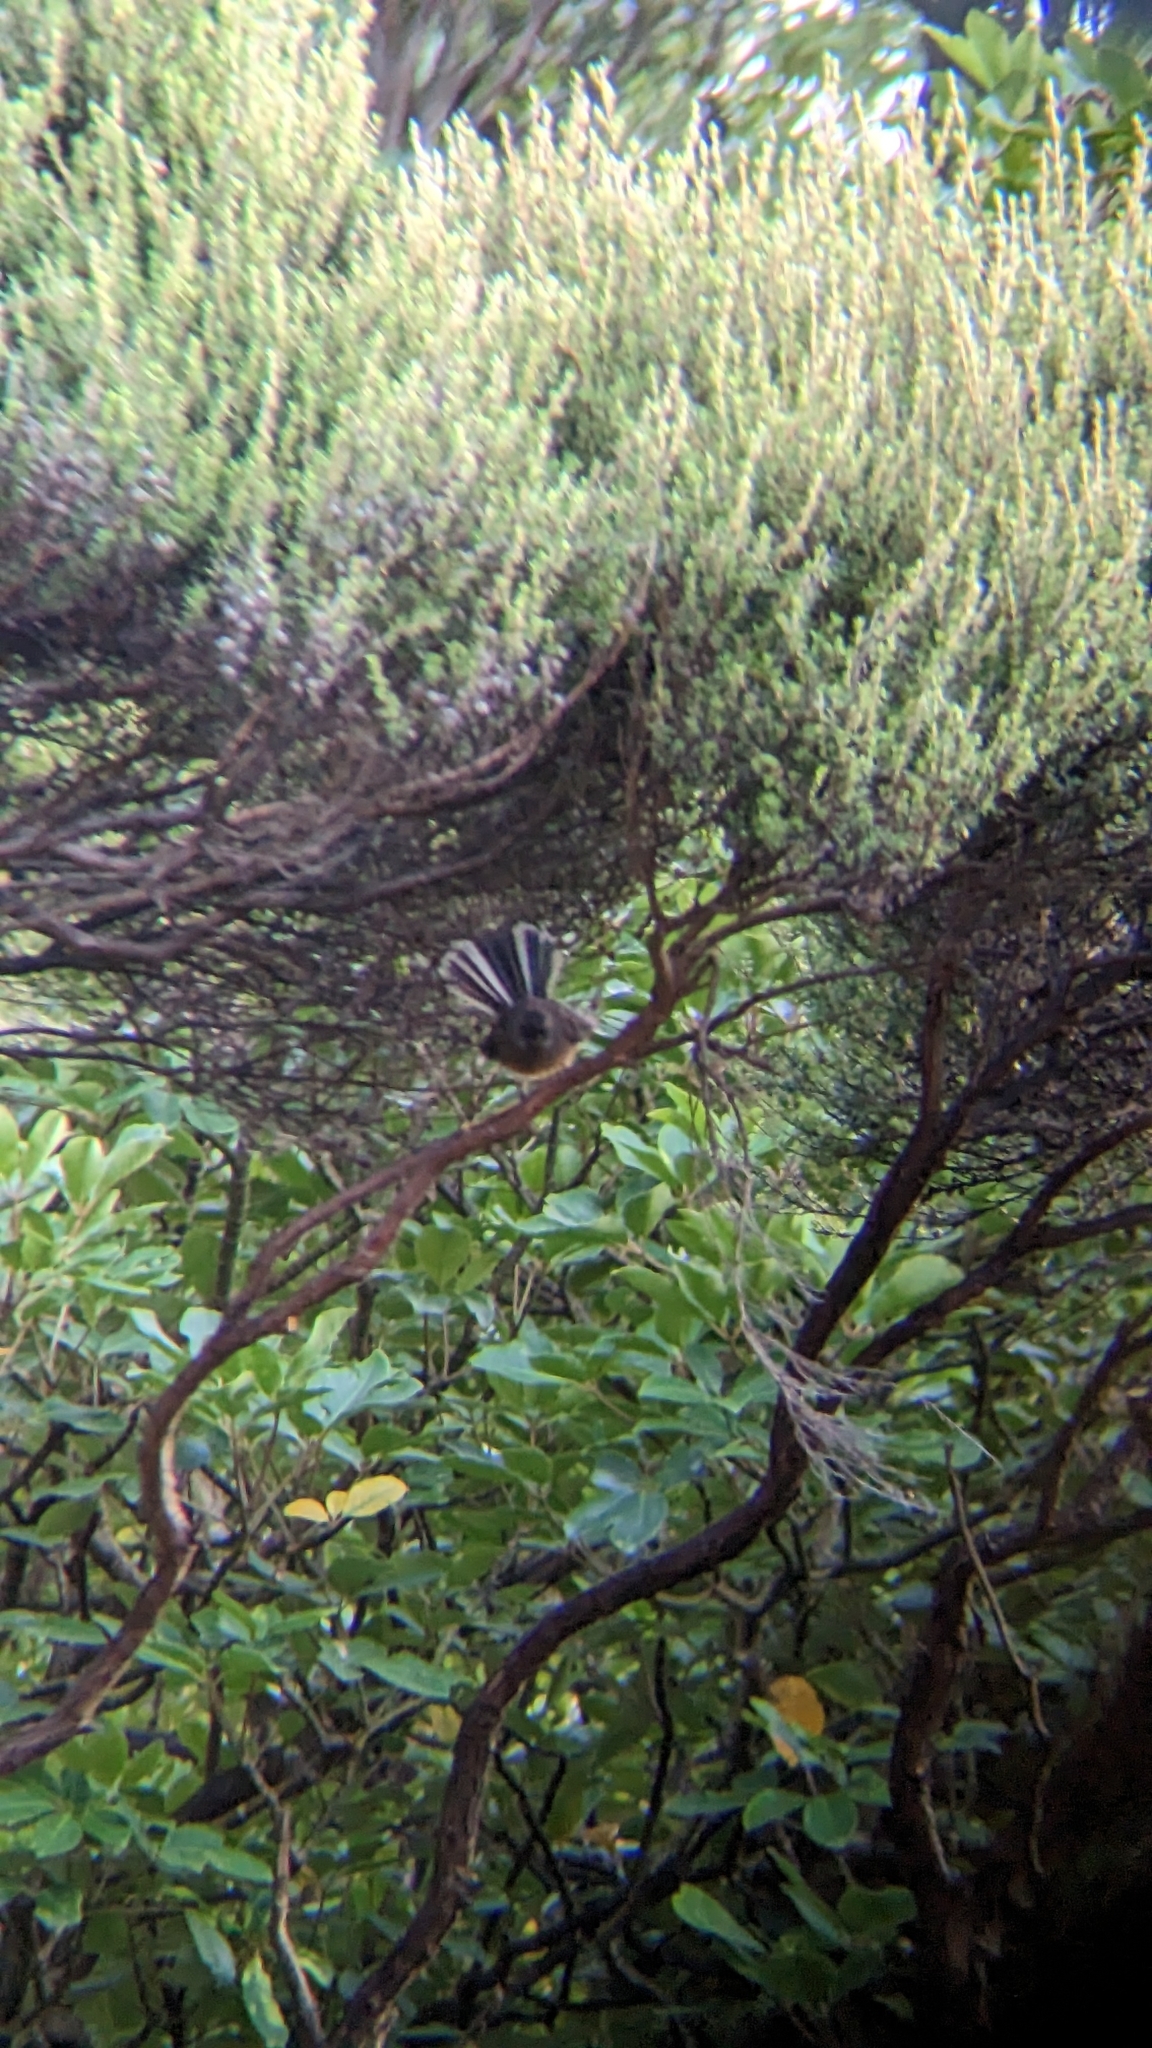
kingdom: Animalia
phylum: Chordata
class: Aves
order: Passeriformes
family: Rhipiduridae
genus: Rhipidura
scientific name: Rhipidura fuliginosa
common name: New zealand fantail
